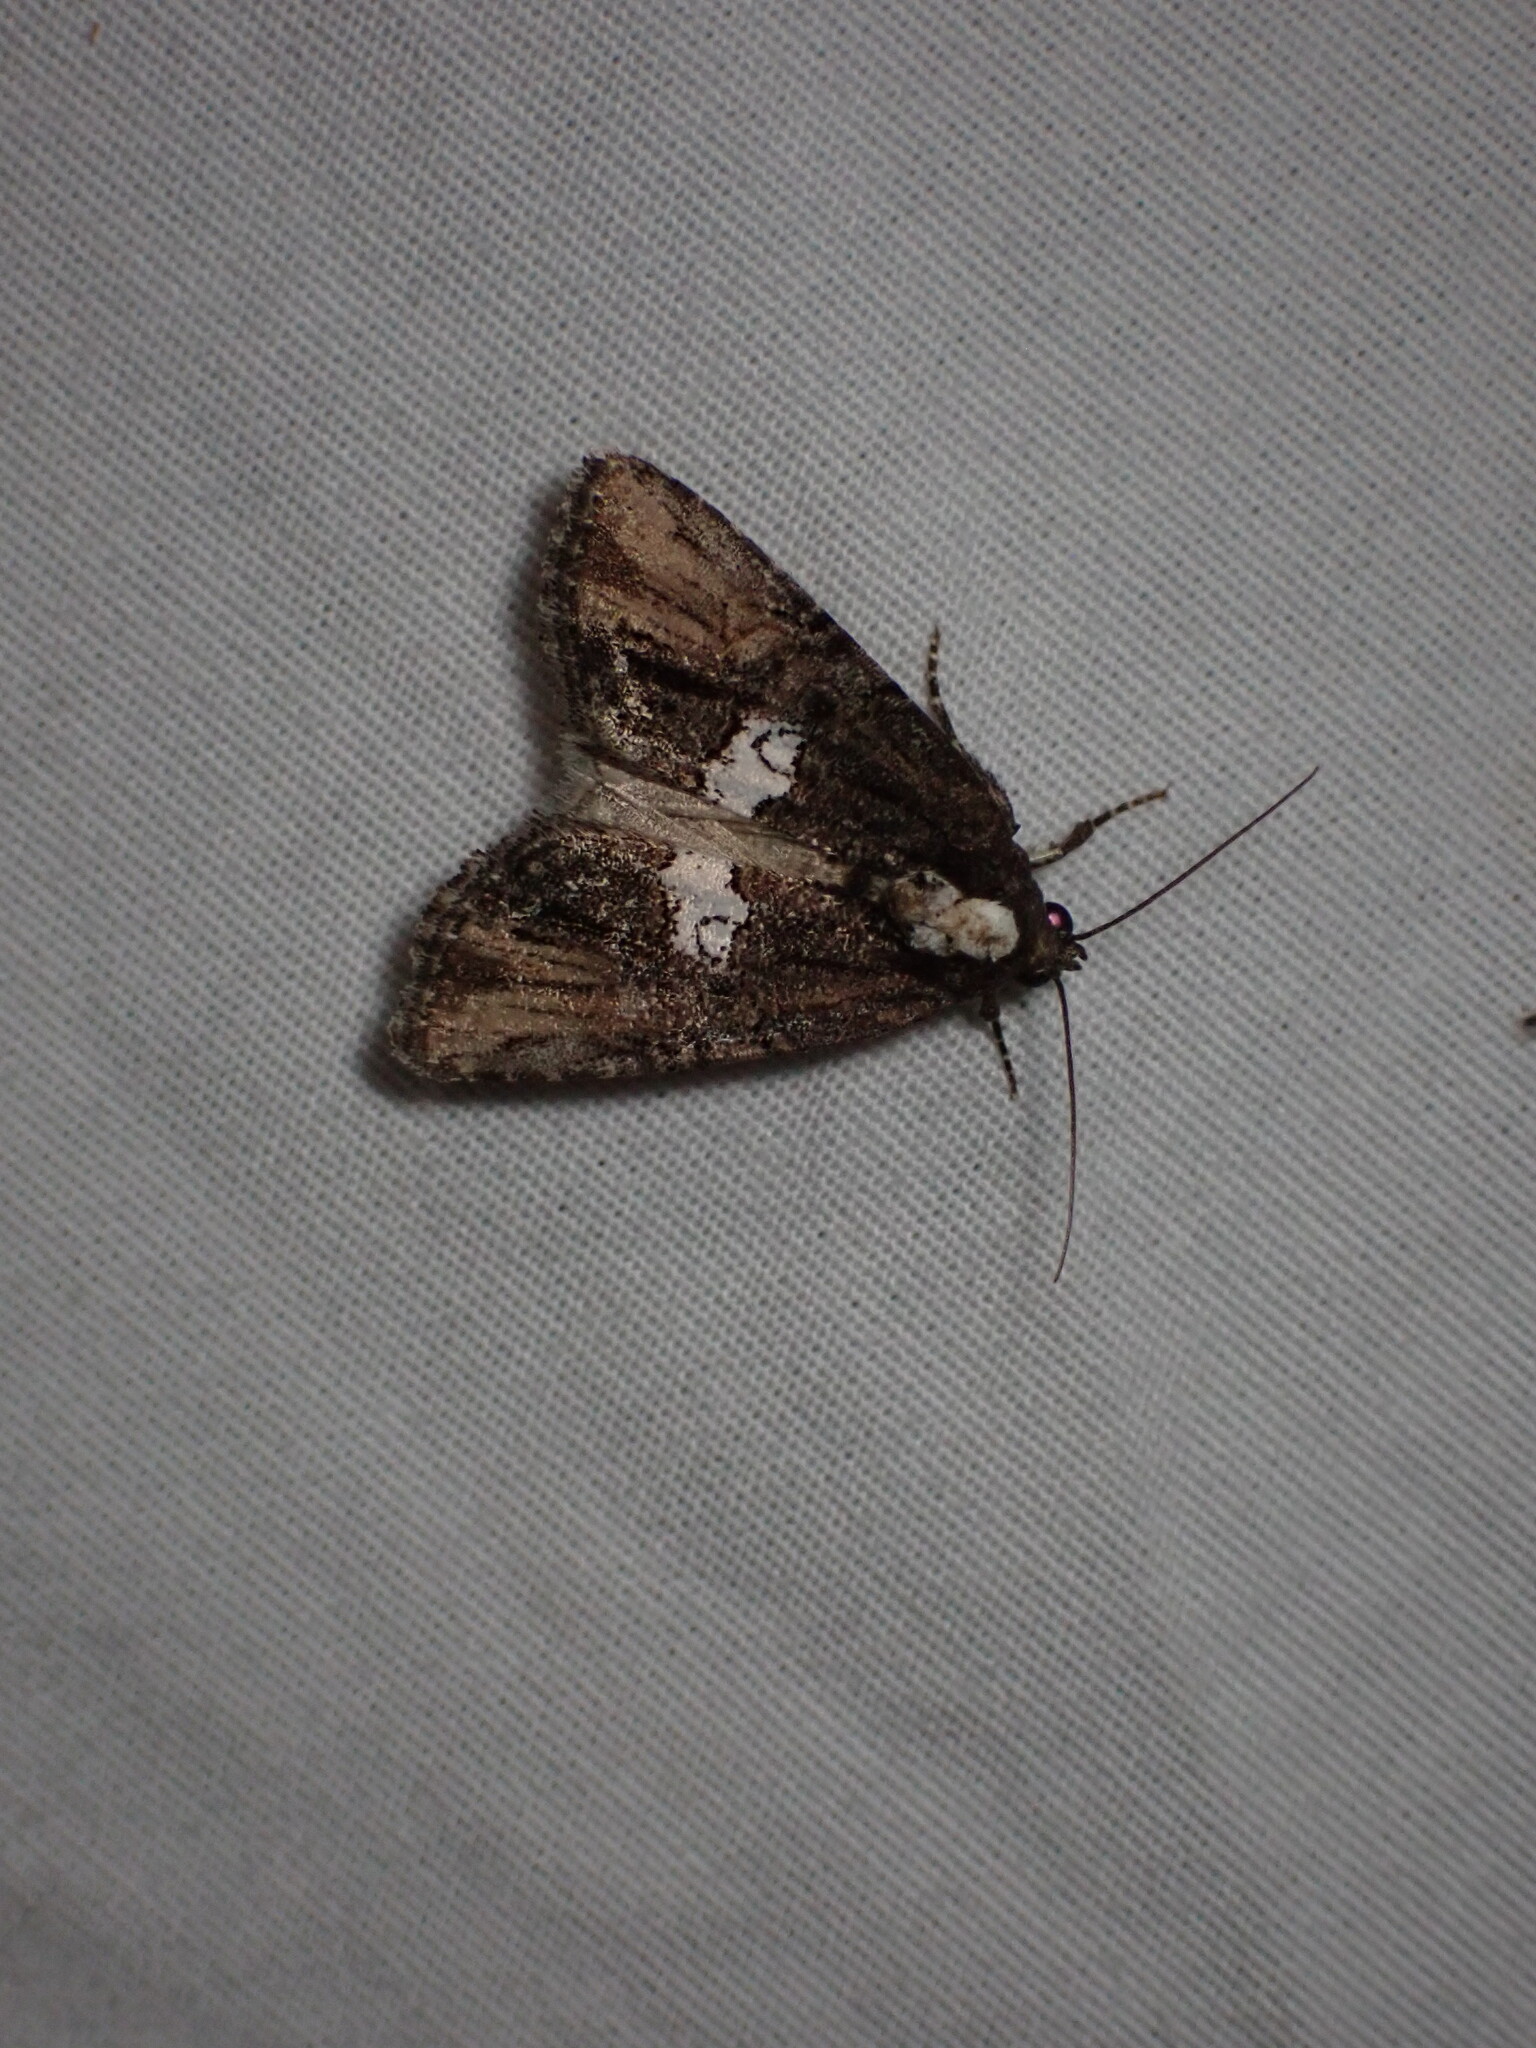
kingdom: Animalia
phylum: Arthropoda
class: Insecta
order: Lepidoptera
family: Noctuidae
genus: Bryolymnia
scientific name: Bryolymnia semifascia
